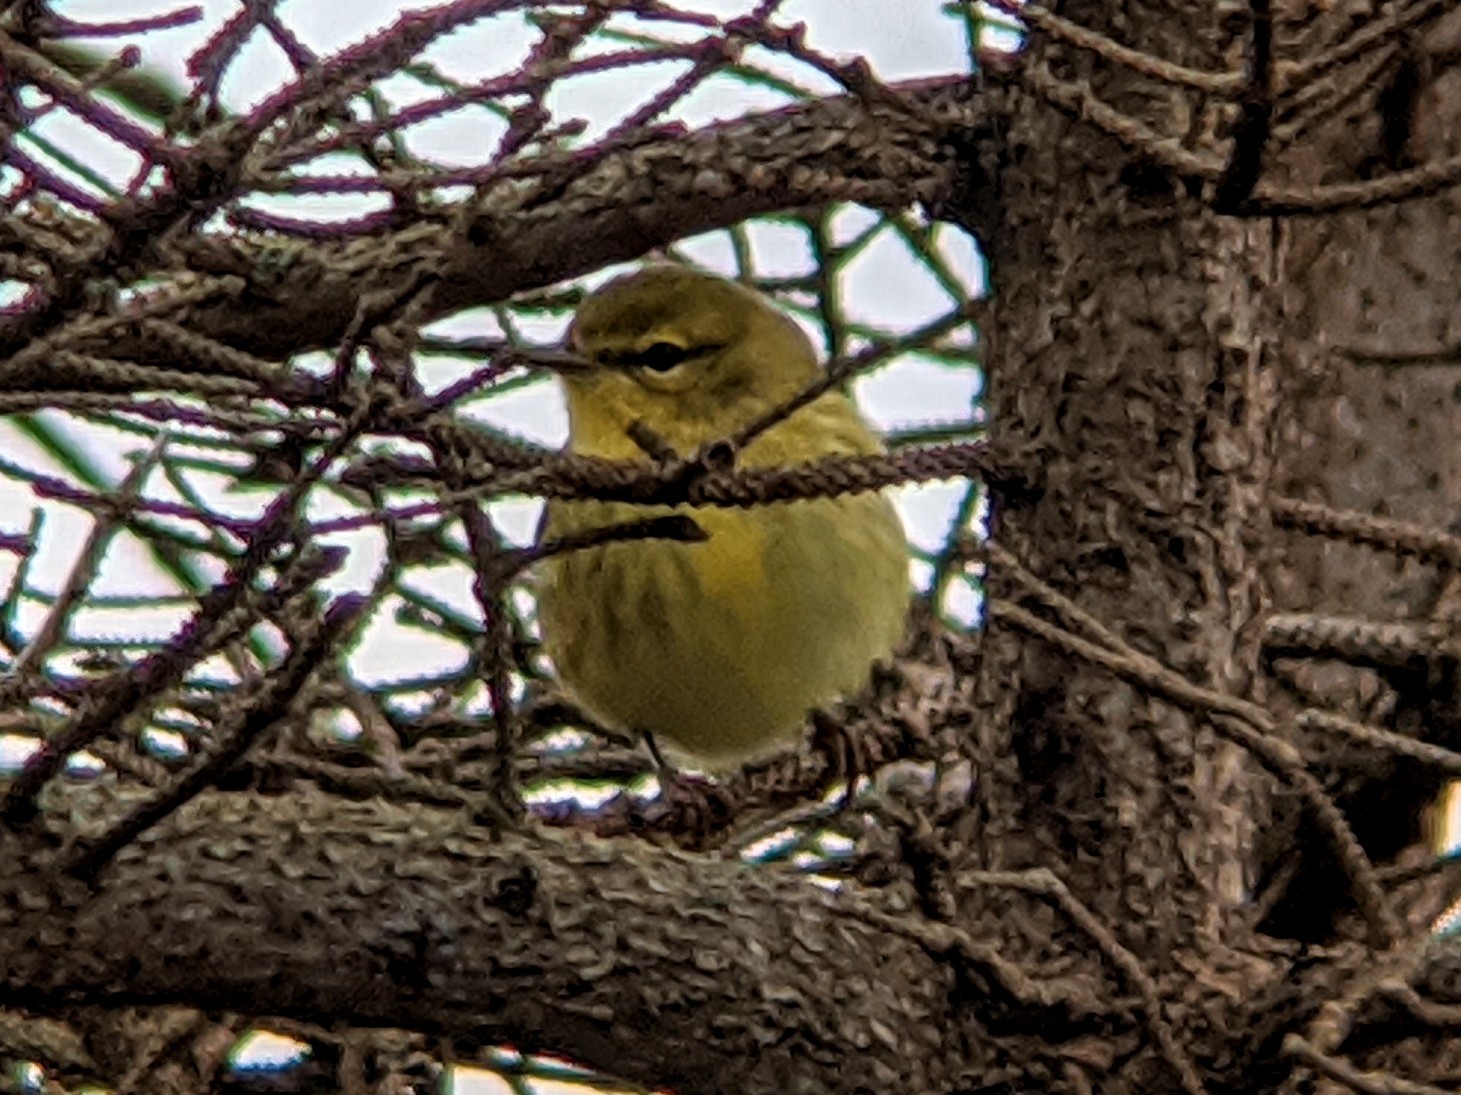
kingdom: Animalia
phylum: Chordata
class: Aves
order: Passeriformes
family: Parulidae
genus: Setophaga
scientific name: Setophaga pinus
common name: Pine warbler
